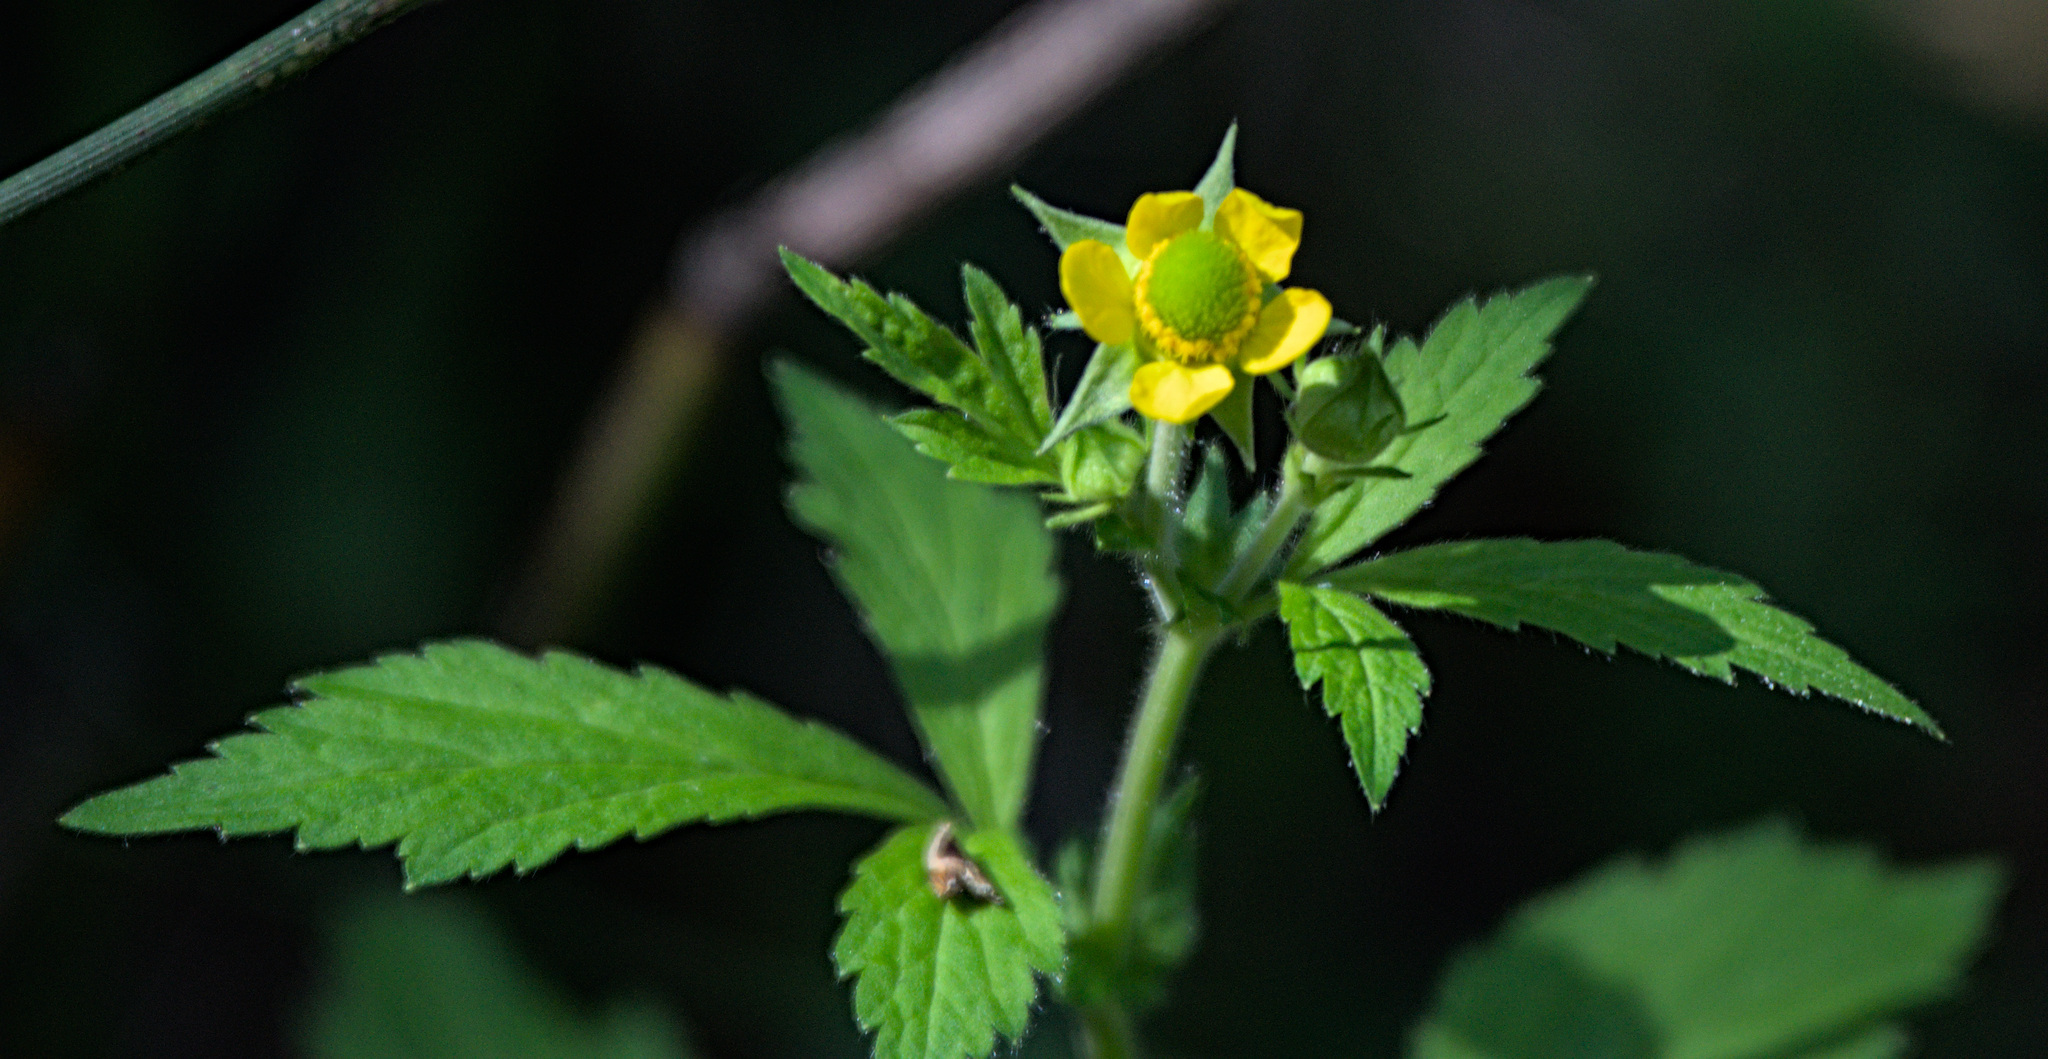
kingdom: Plantae
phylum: Tracheophyta
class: Magnoliopsida
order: Rosales
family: Rosaceae
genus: Geum
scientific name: Geum aleppicum
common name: Yellow avens
